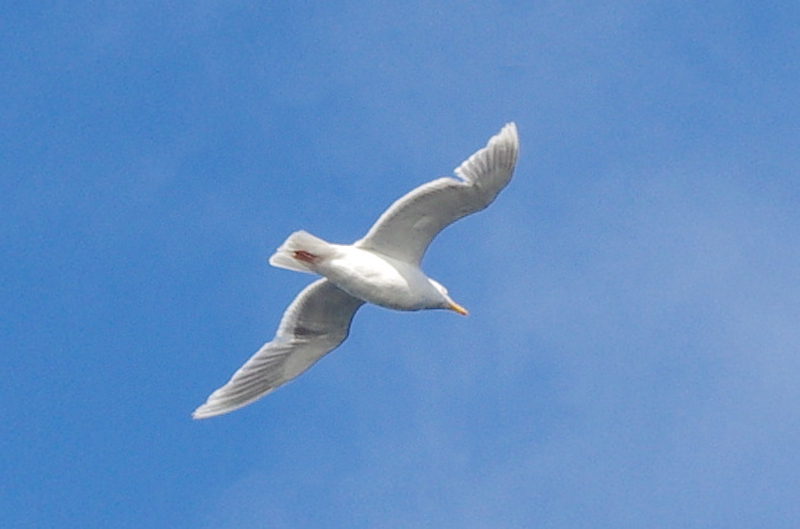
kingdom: Animalia
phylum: Chordata
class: Aves
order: Charadriiformes
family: Laridae
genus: Larus
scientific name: Larus hyperboreus
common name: Glaucous gull
